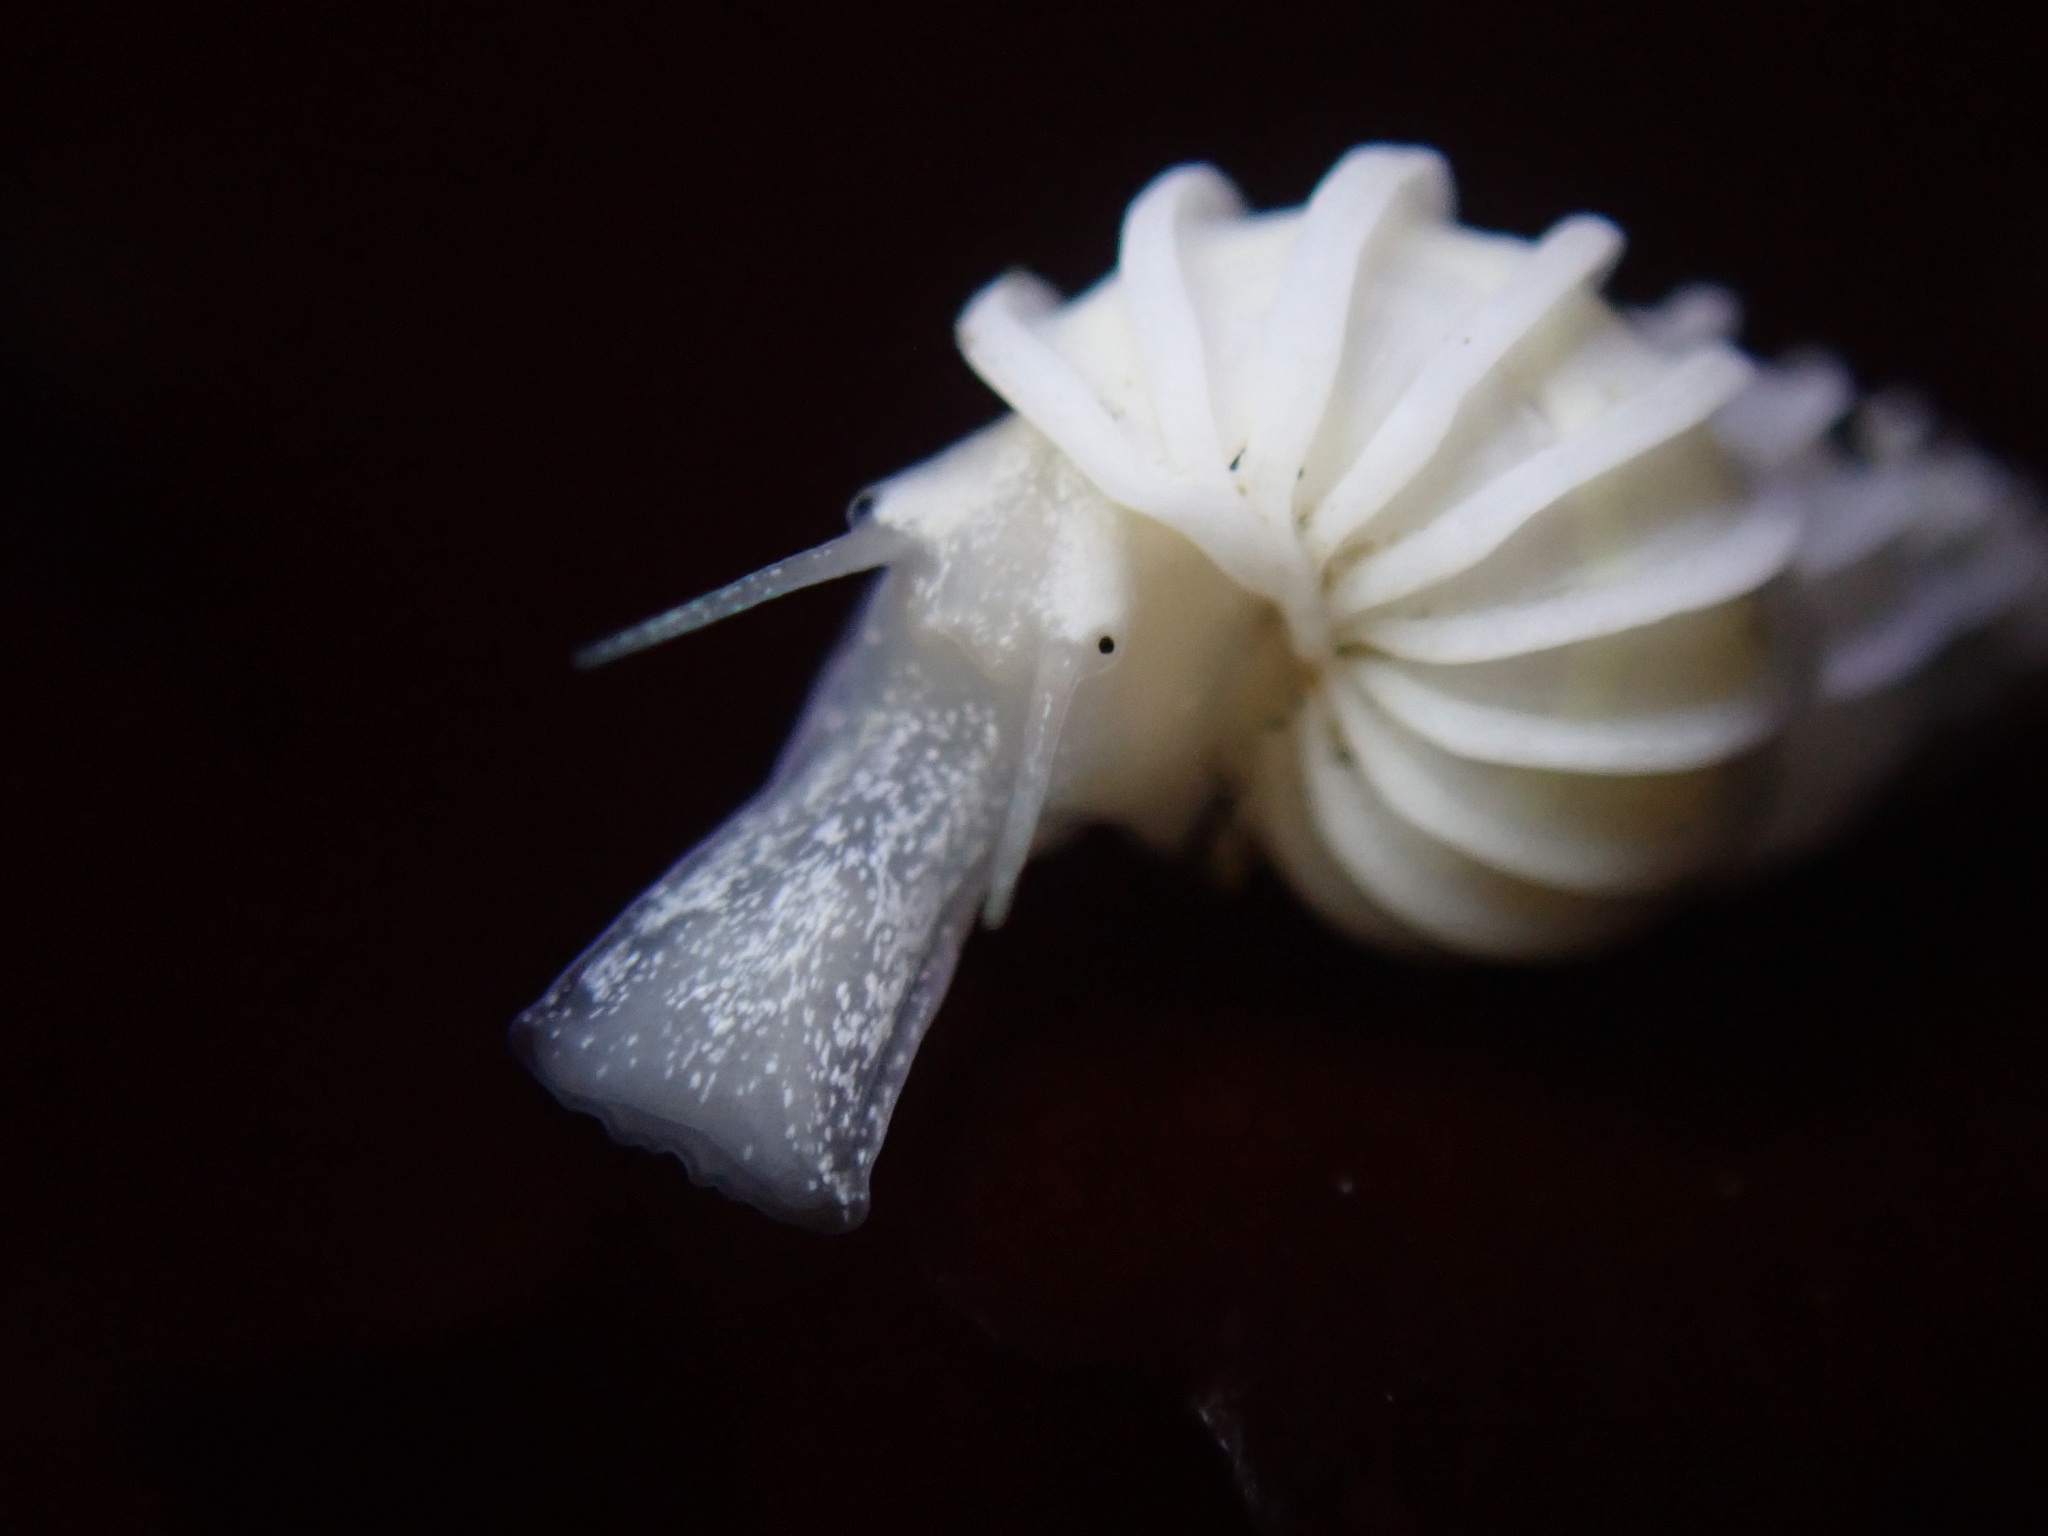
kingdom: Animalia
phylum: Mollusca
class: Gastropoda
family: Epitoniidae
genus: Epitonium
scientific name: Epitonium tinctum
